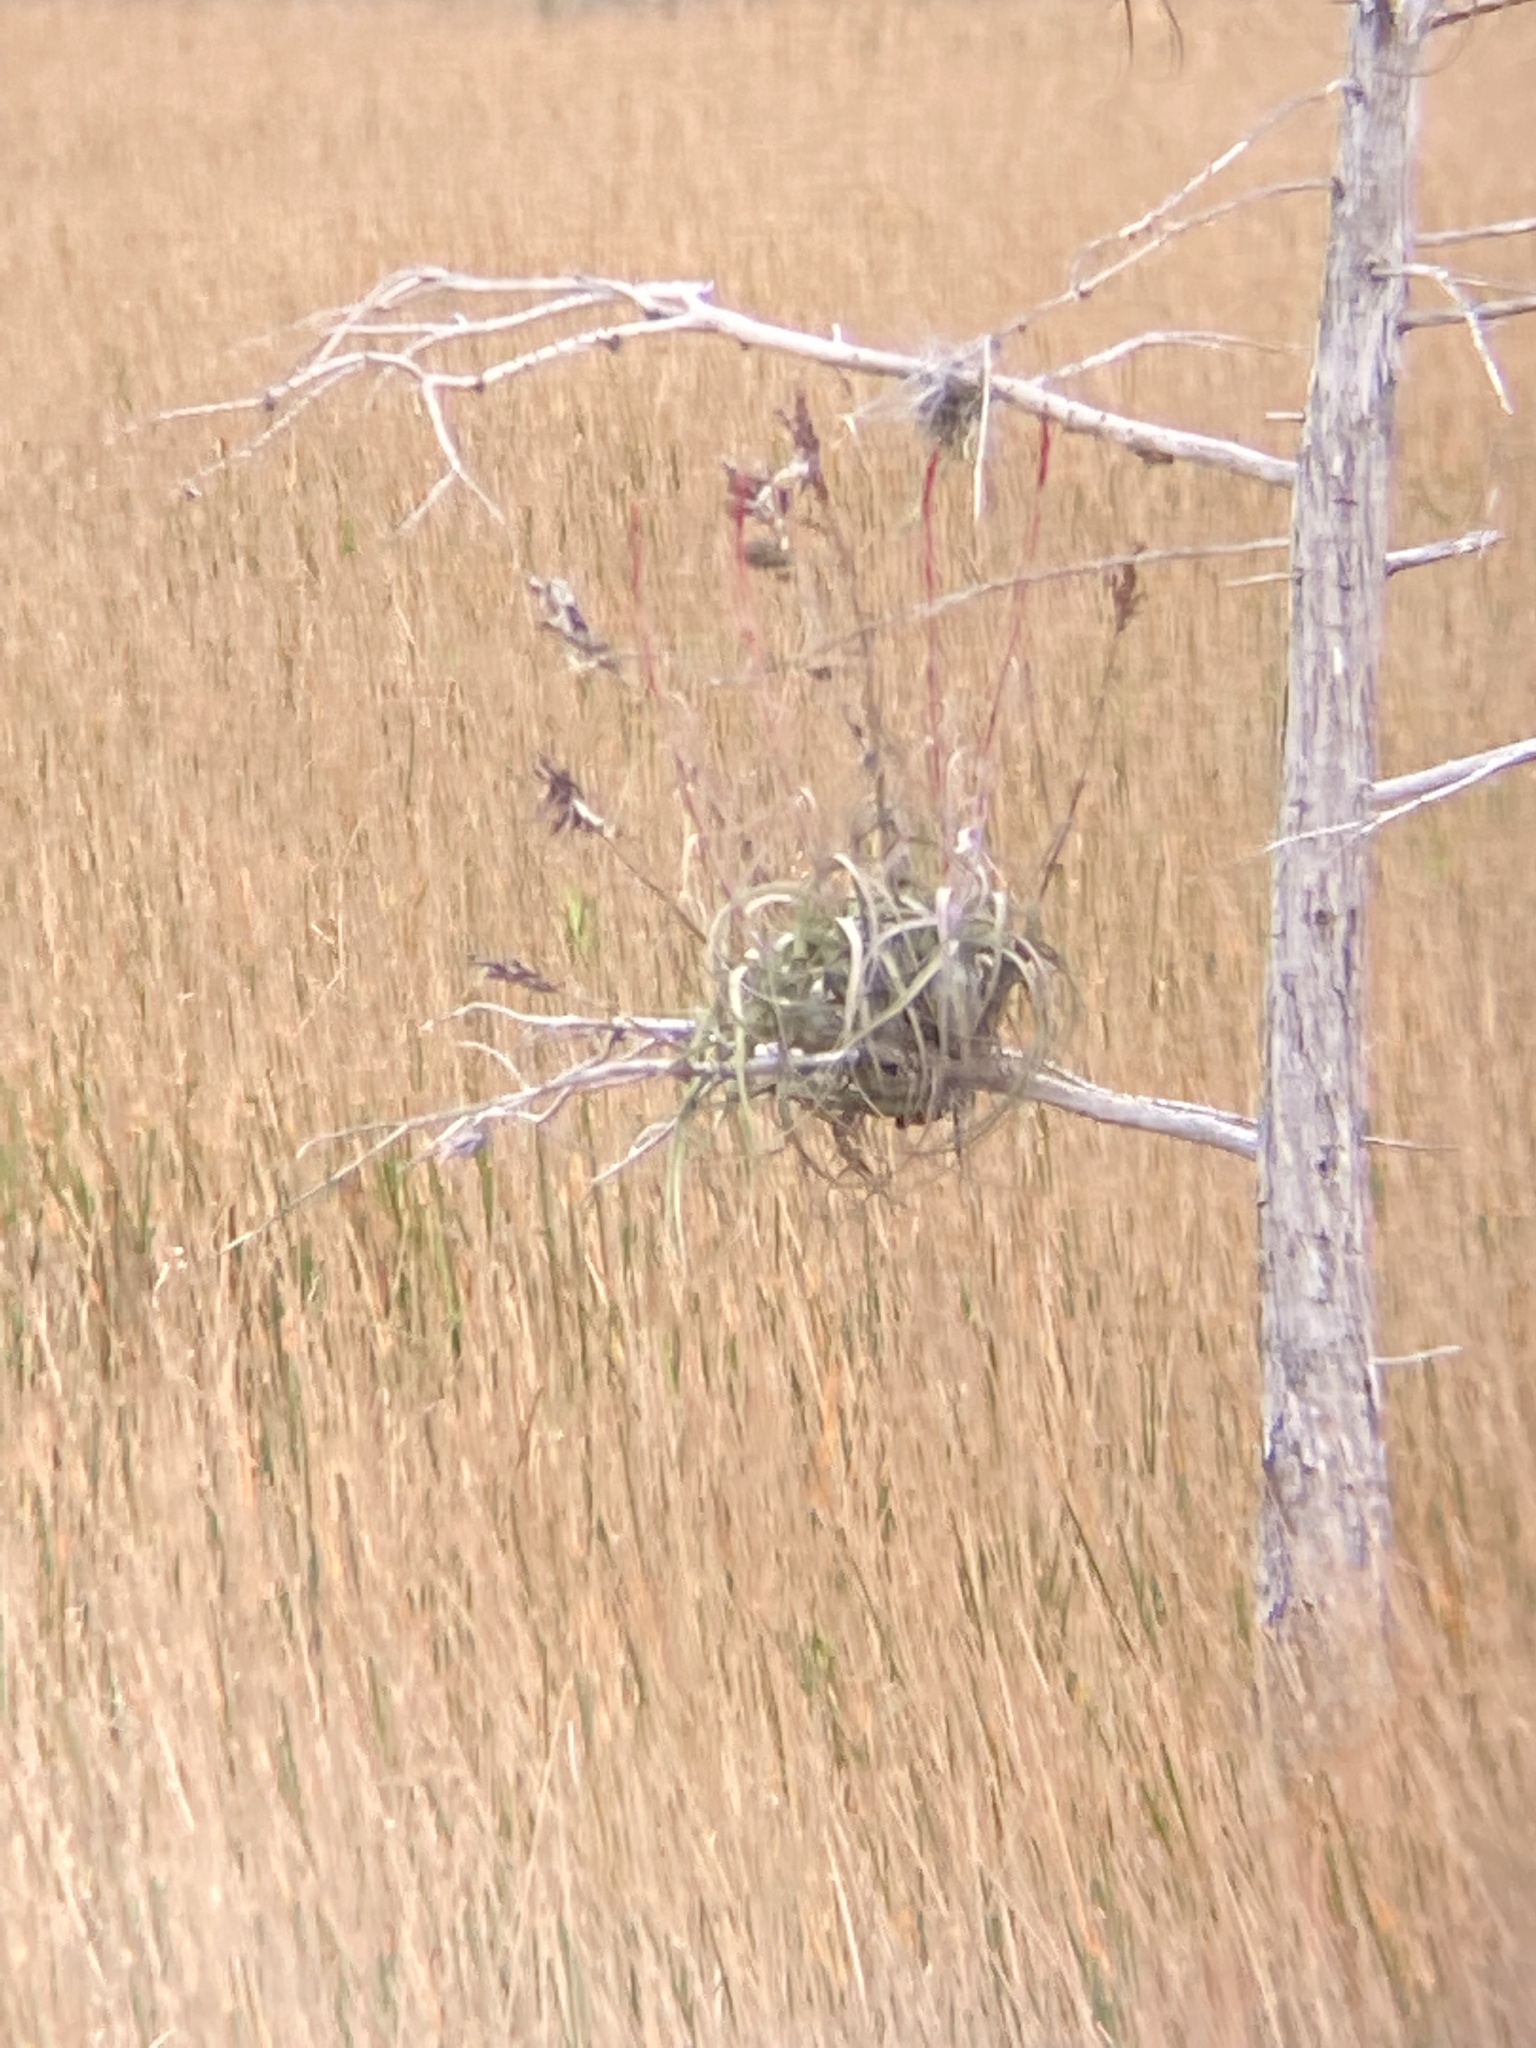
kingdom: Plantae
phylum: Tracheophyta
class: Liliopsida
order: Poales
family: Bromeliaceae
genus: Tillandsia
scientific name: Tillandsia balbisiana
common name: Northern needleleaf
